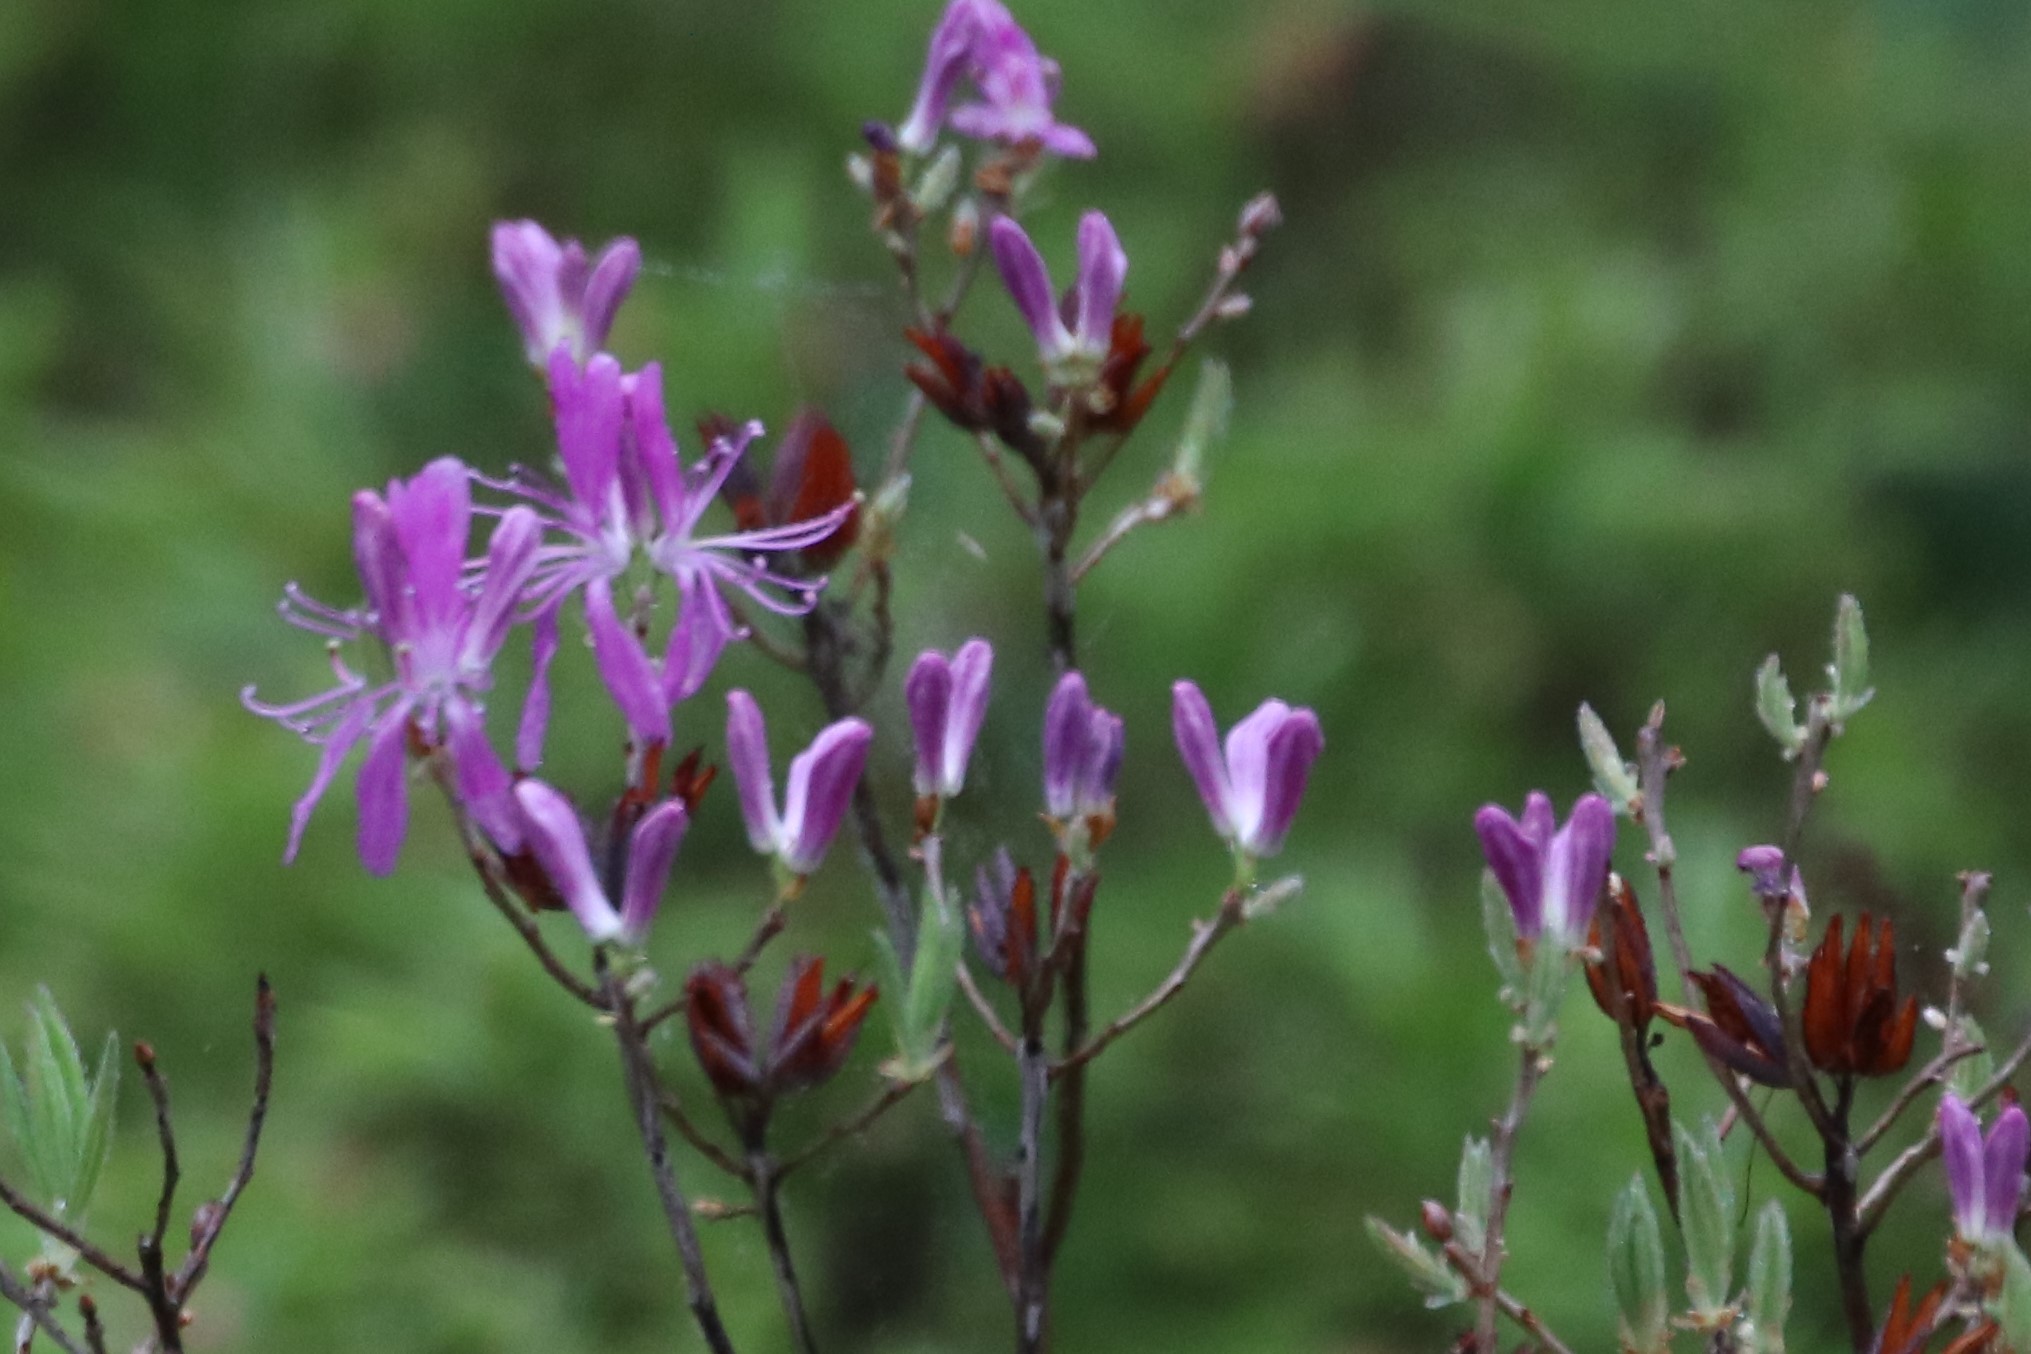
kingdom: Plantae
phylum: Tracheophyta
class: Magnoliopsida
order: Ericales
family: Ericaceae
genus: Rhododendron
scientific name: Rhododendron canadense
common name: Rhodora
